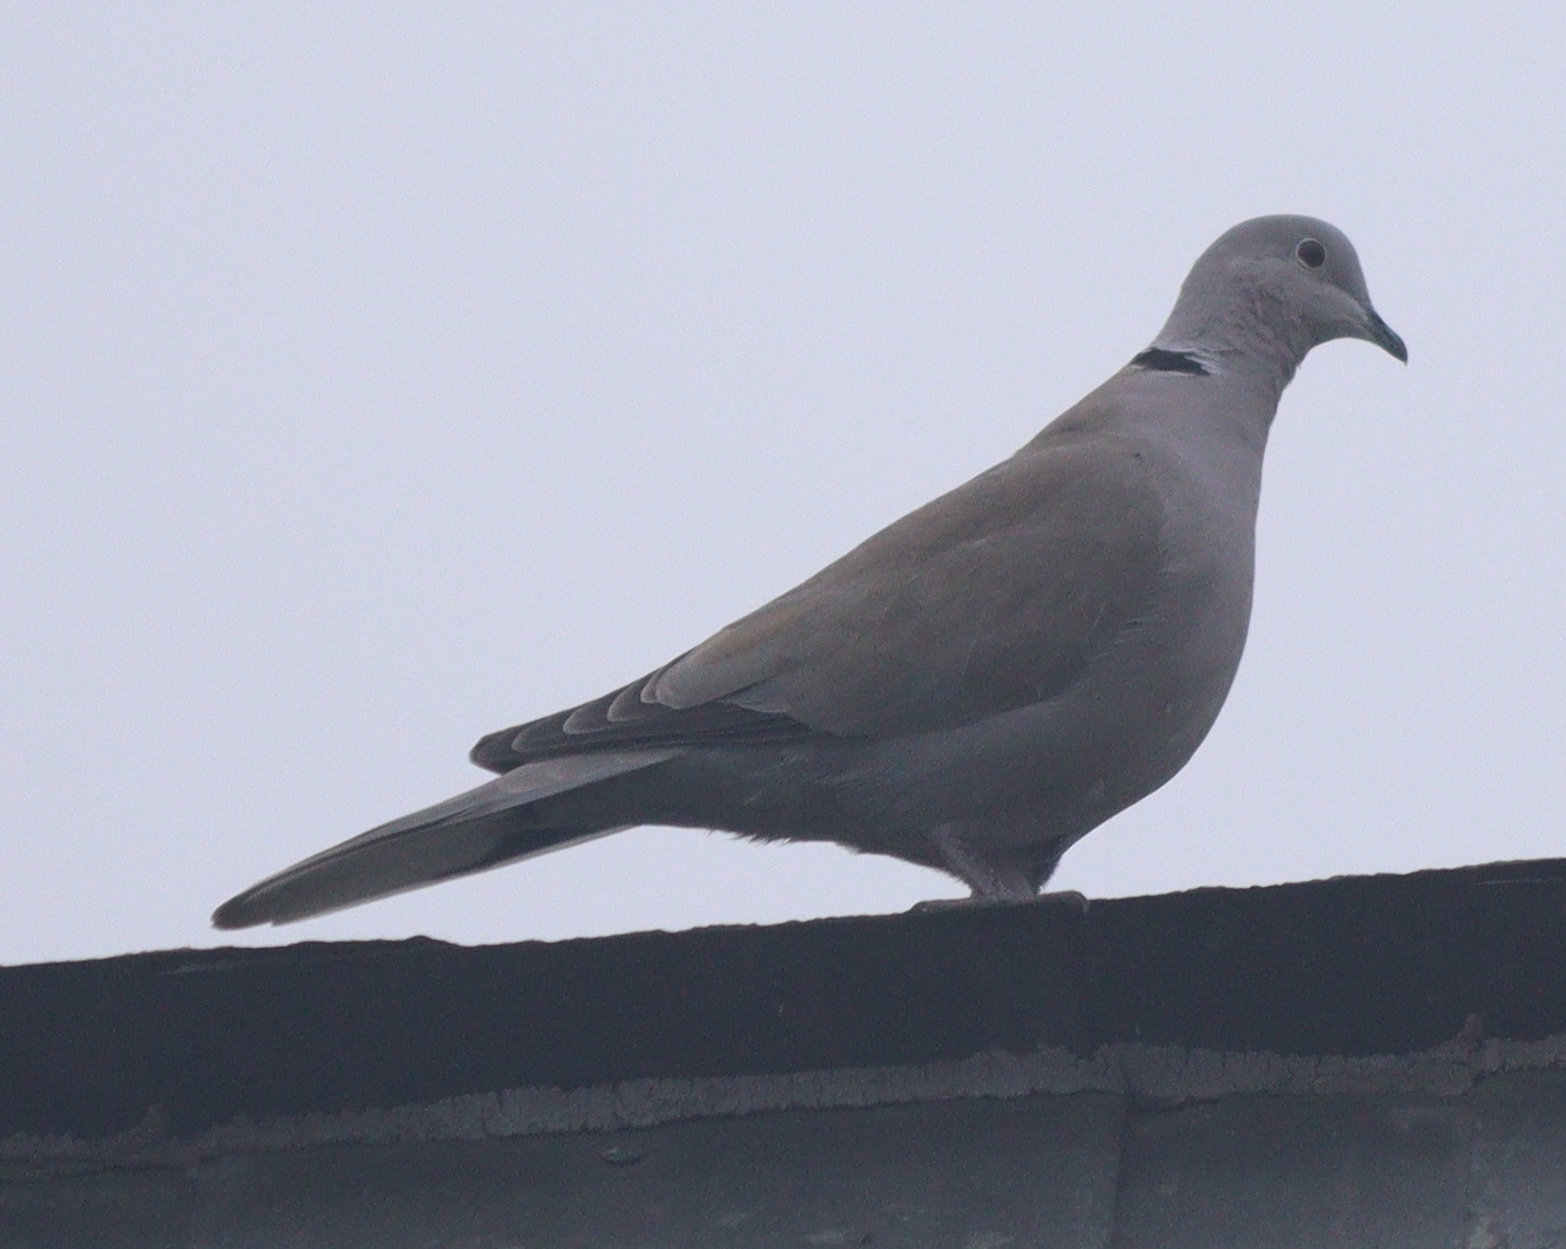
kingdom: Animalia
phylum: Chordata
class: Aves
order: Columbiformes
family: Columbidae
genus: Streptopelia
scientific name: Streptopelia decaocto
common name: Eurasian collared dove
